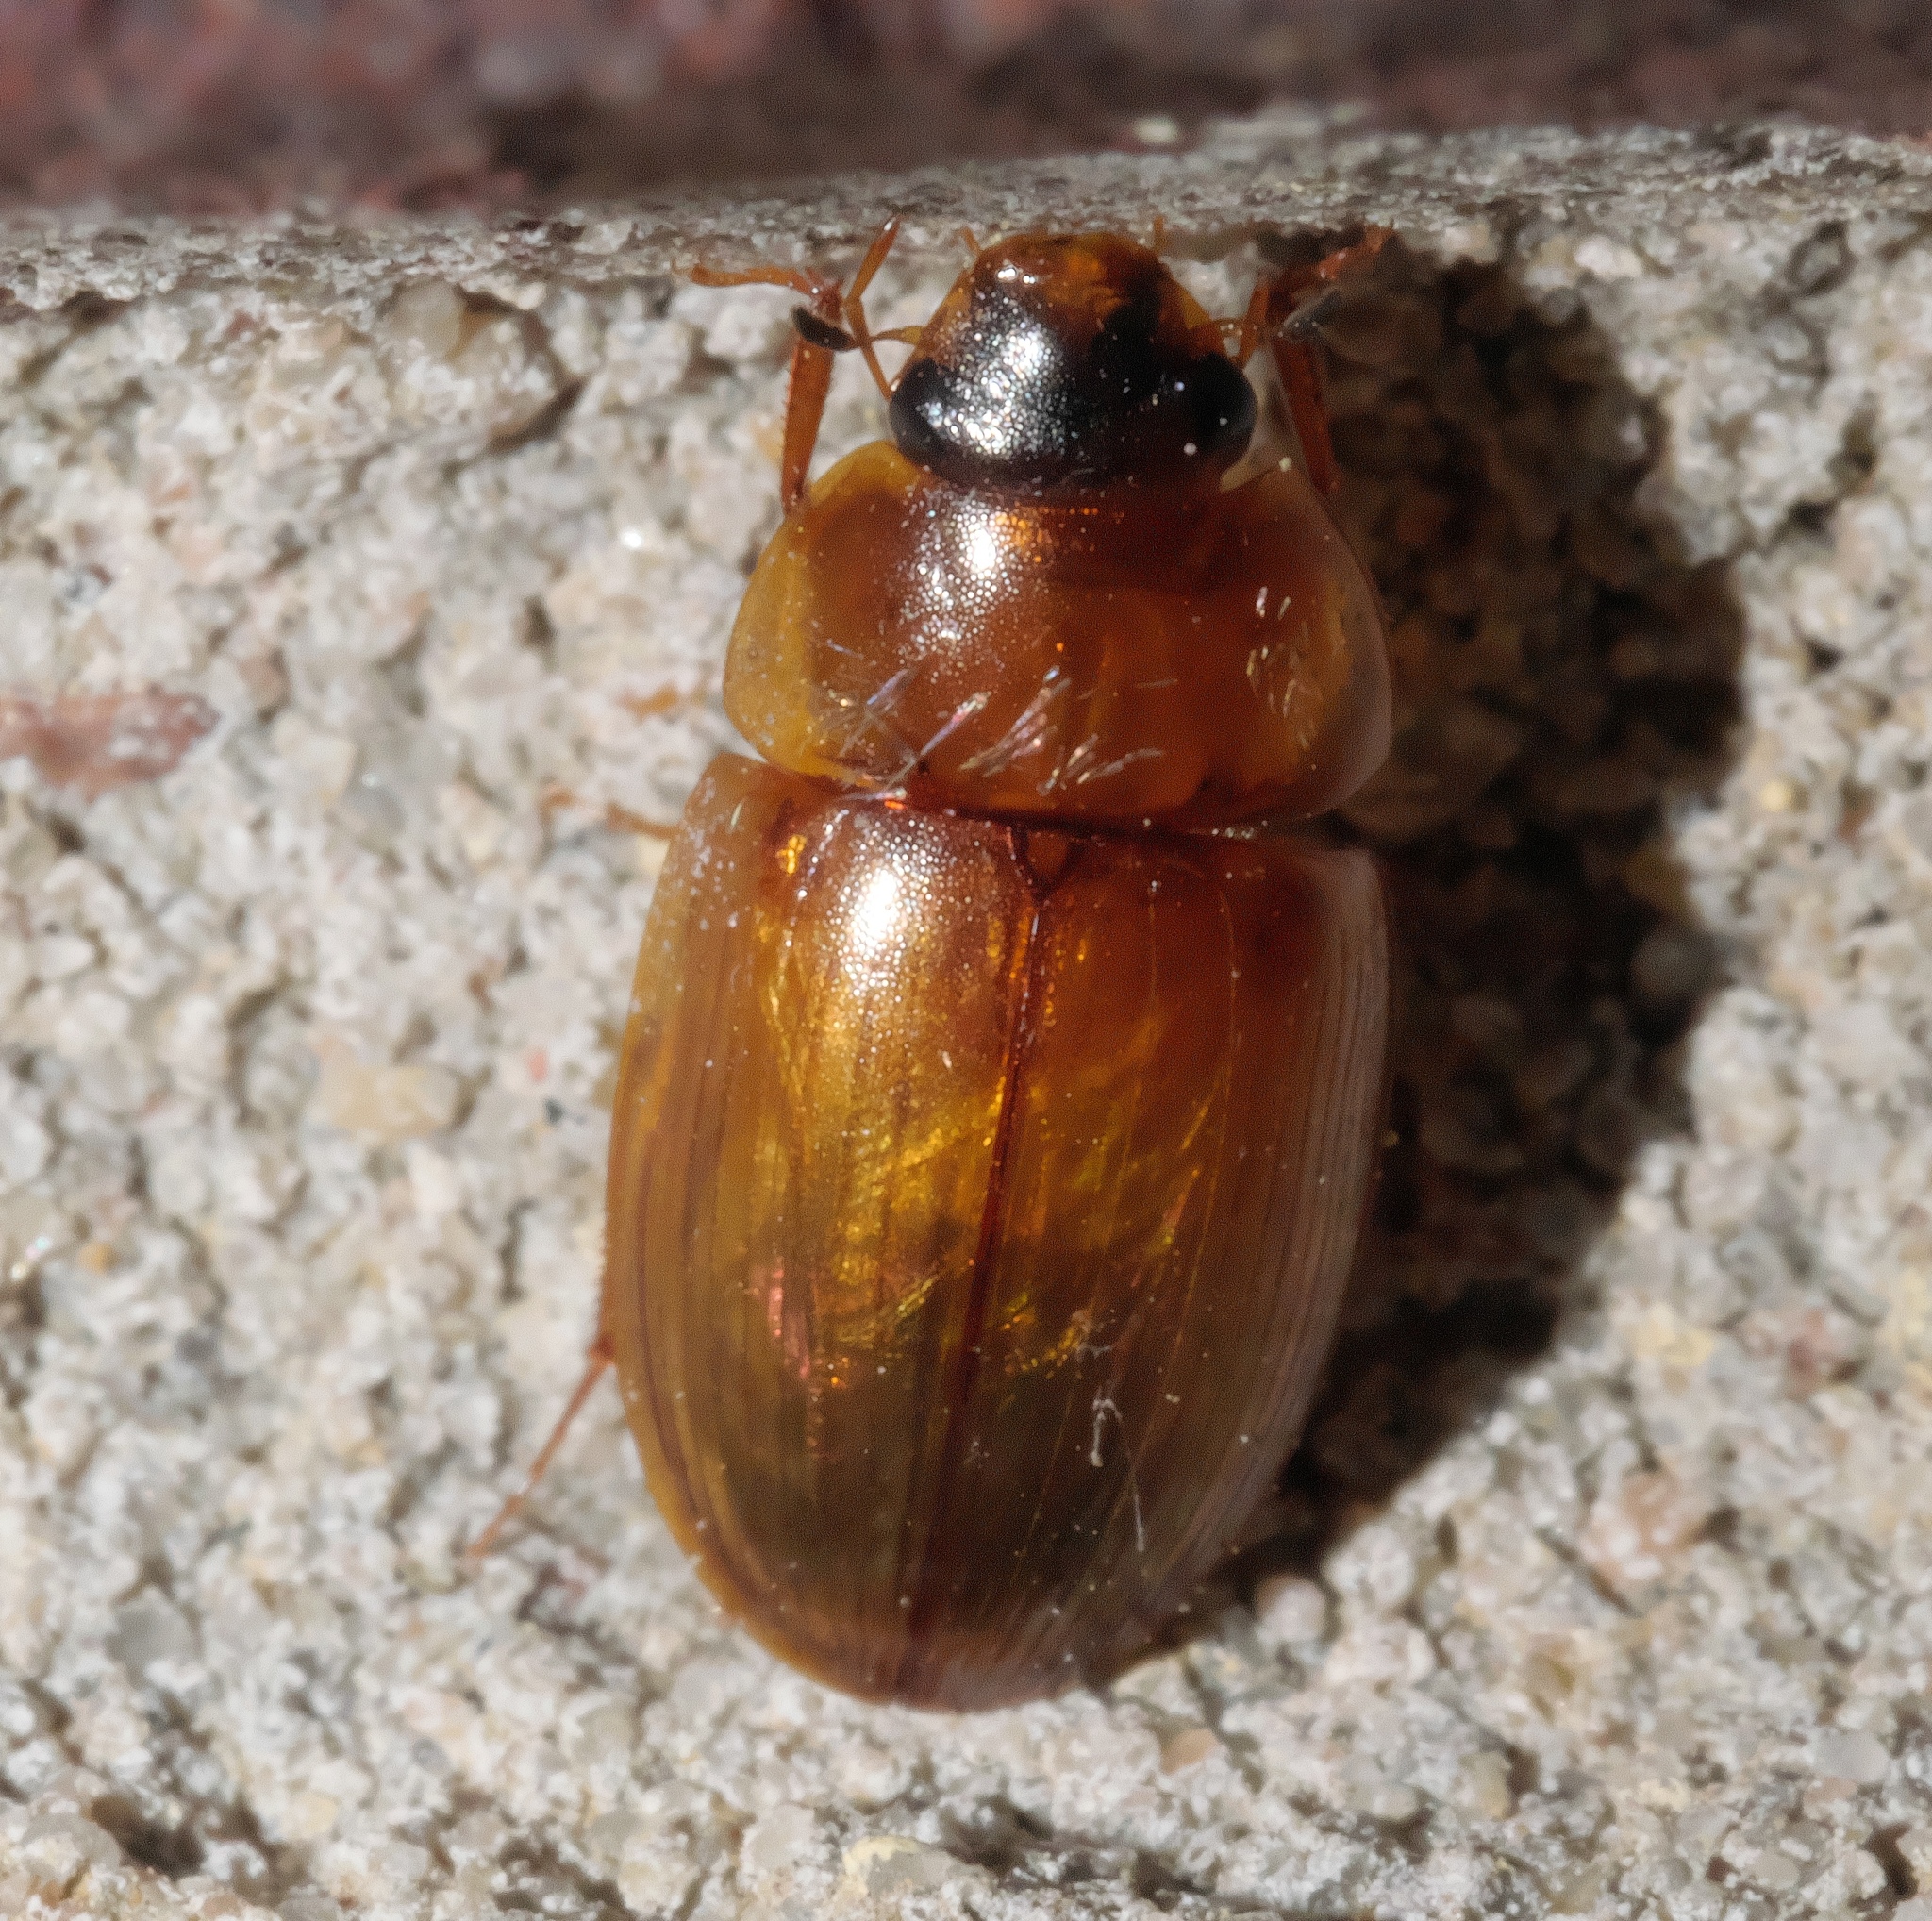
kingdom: Animalia
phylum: Arthropoda
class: Insecta
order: Coleoptera
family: Hydrophilidae
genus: Enochrus
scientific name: Enochrus
